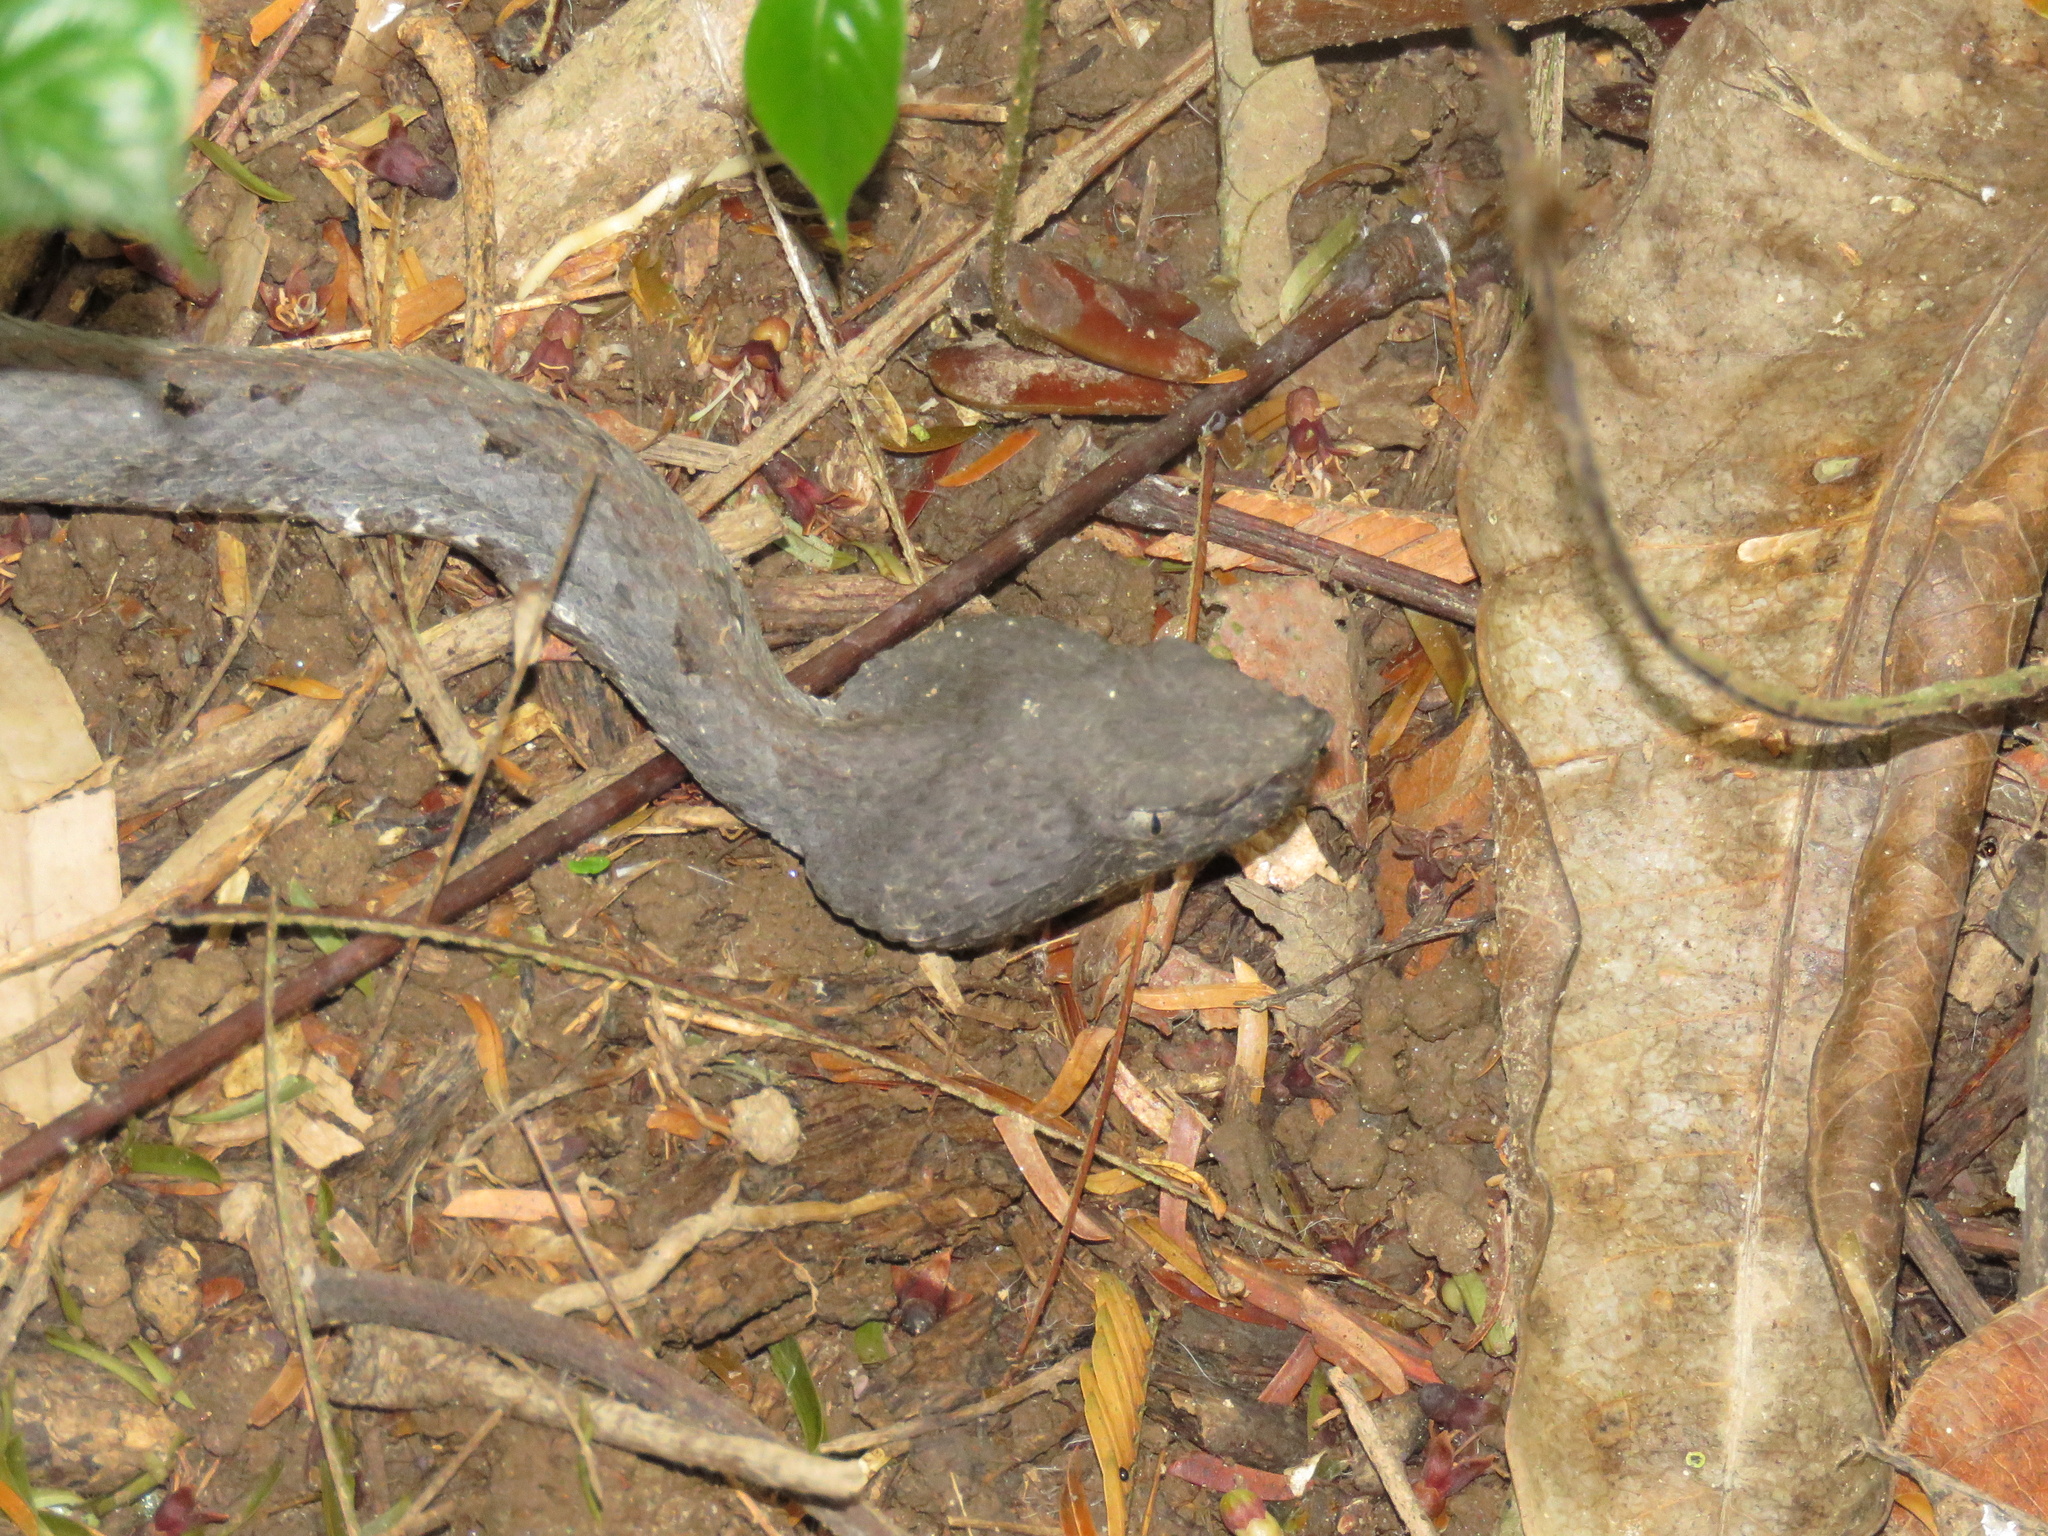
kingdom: Animalia
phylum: Chordata
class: Squamata
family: Viperidae
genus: Porthidium
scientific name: Porthidium nasutum
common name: Hognosed pit viper
